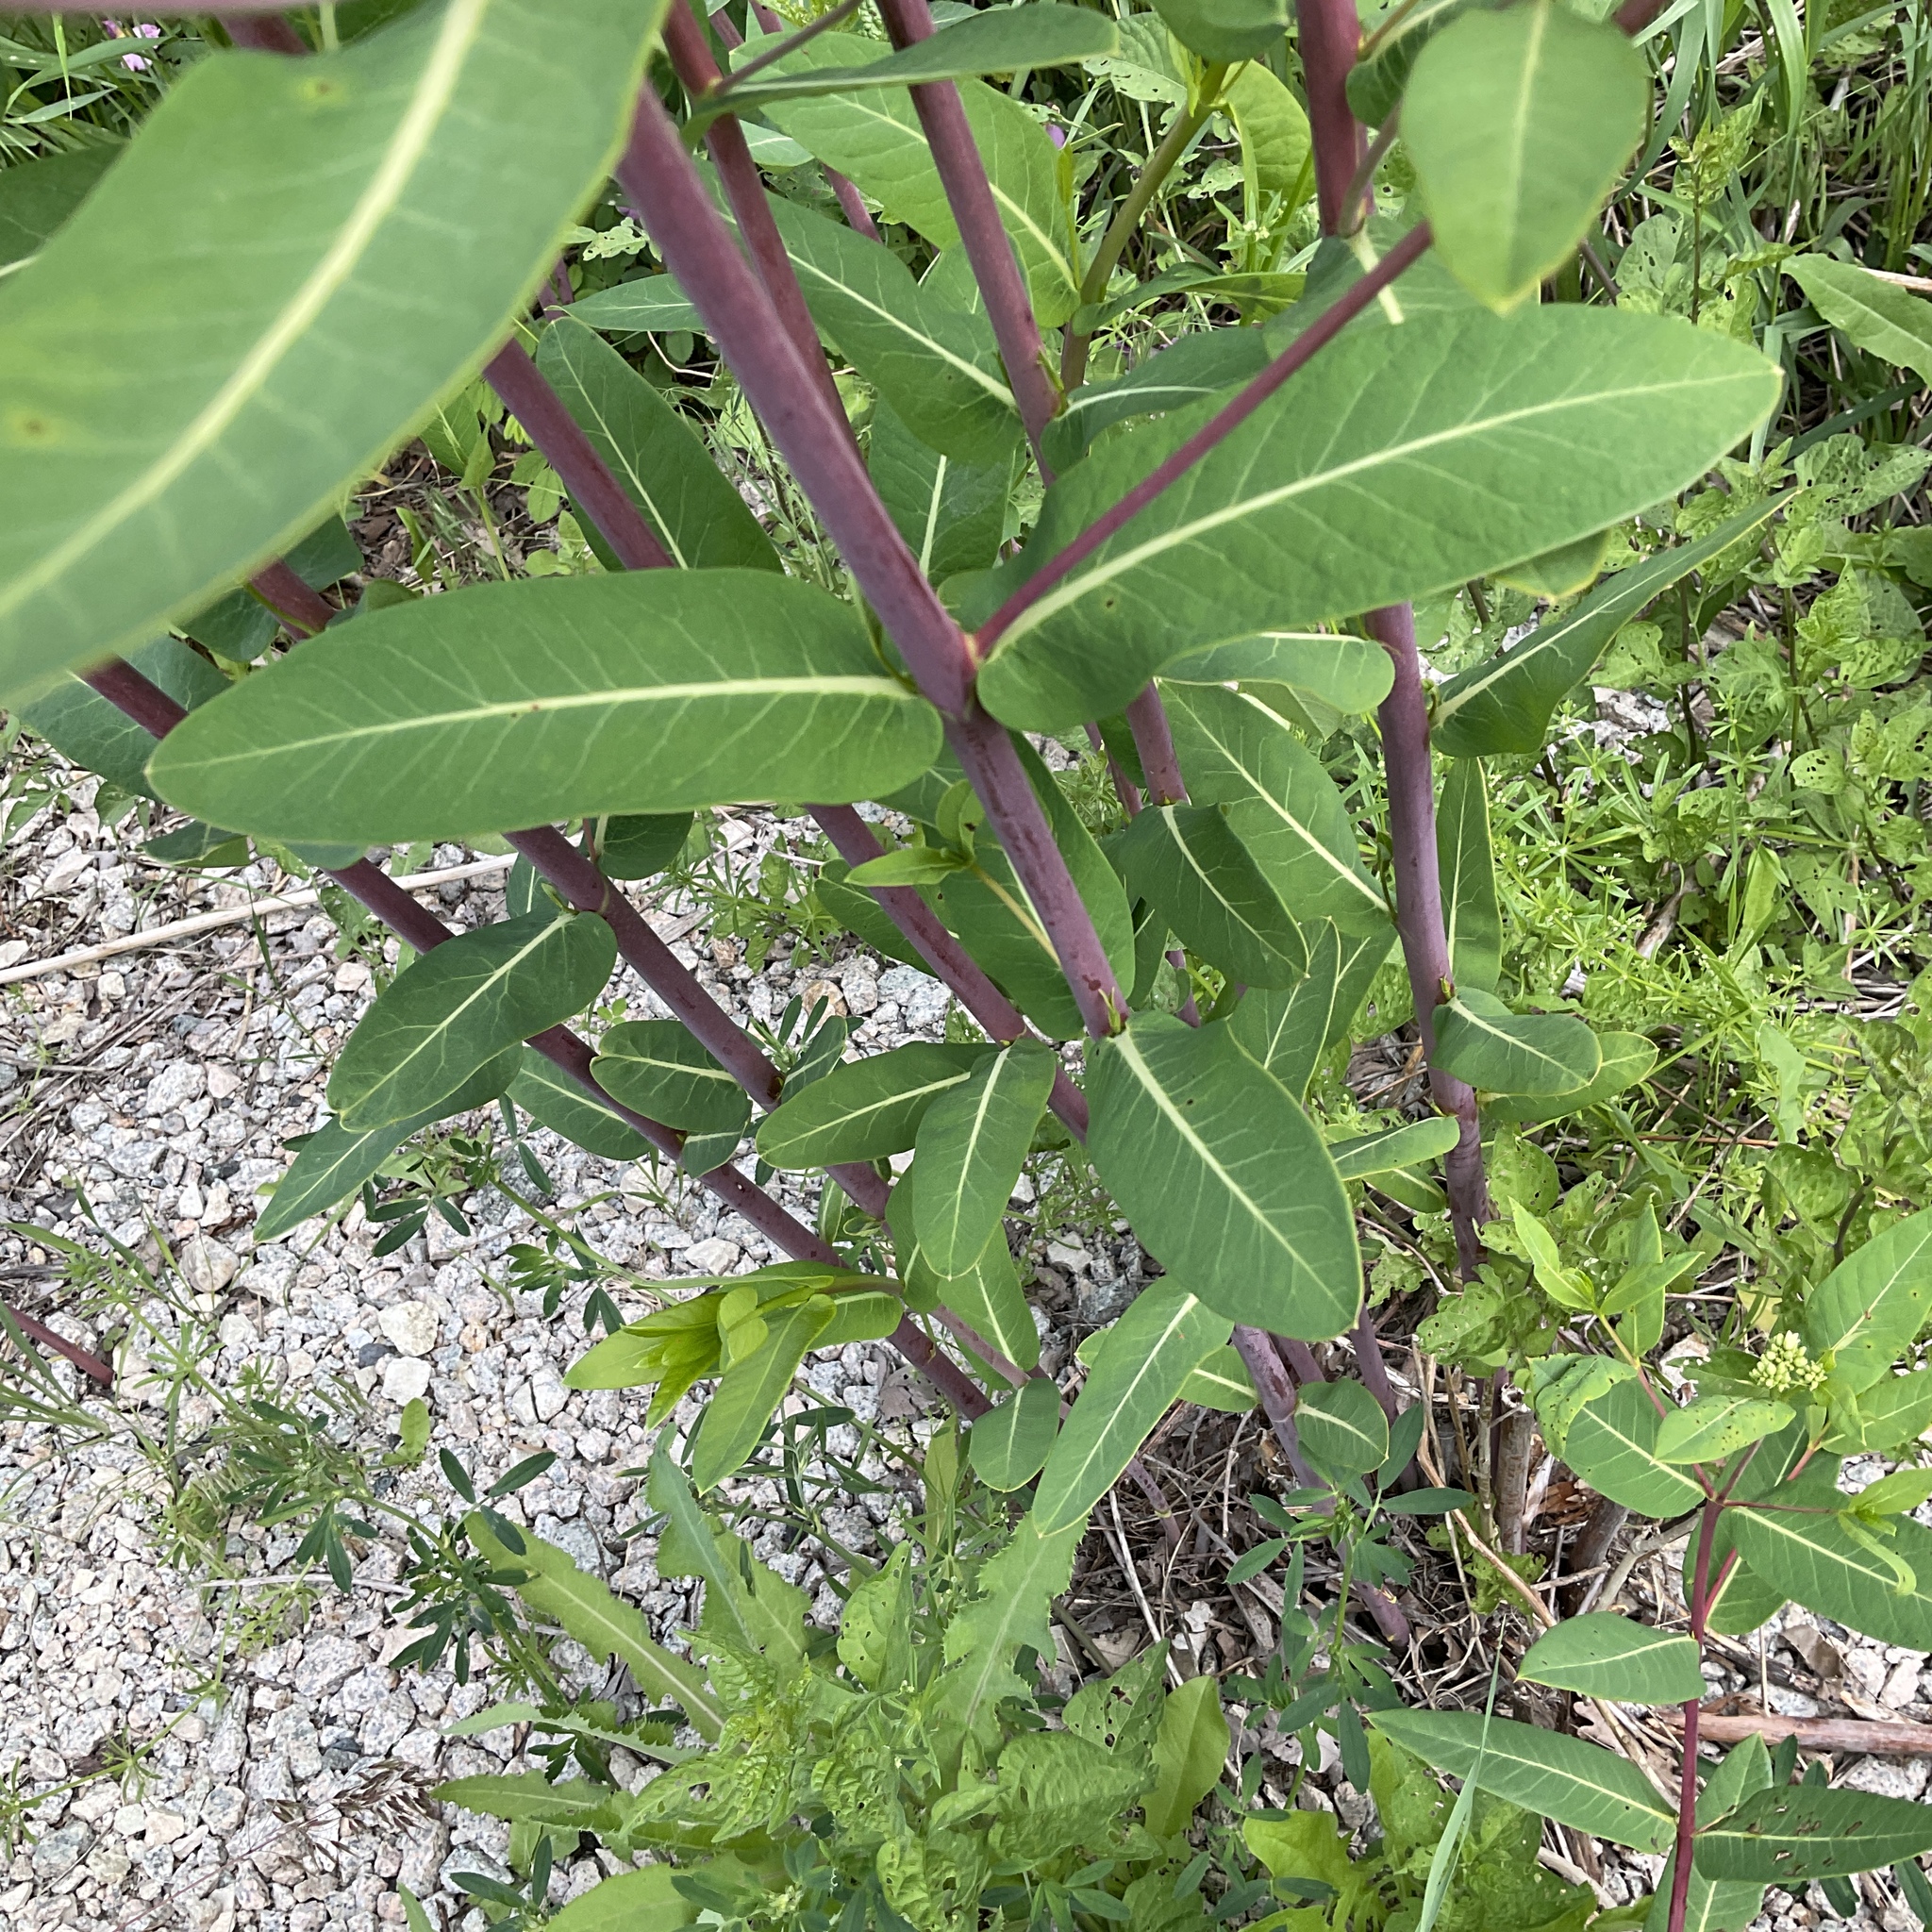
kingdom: Plantae
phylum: Tracheophyta
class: Magnoliopsida
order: Gentianales
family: Apocynaceae
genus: Apocynum
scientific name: Apocynum cannabinum
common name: Hemp dogbane
